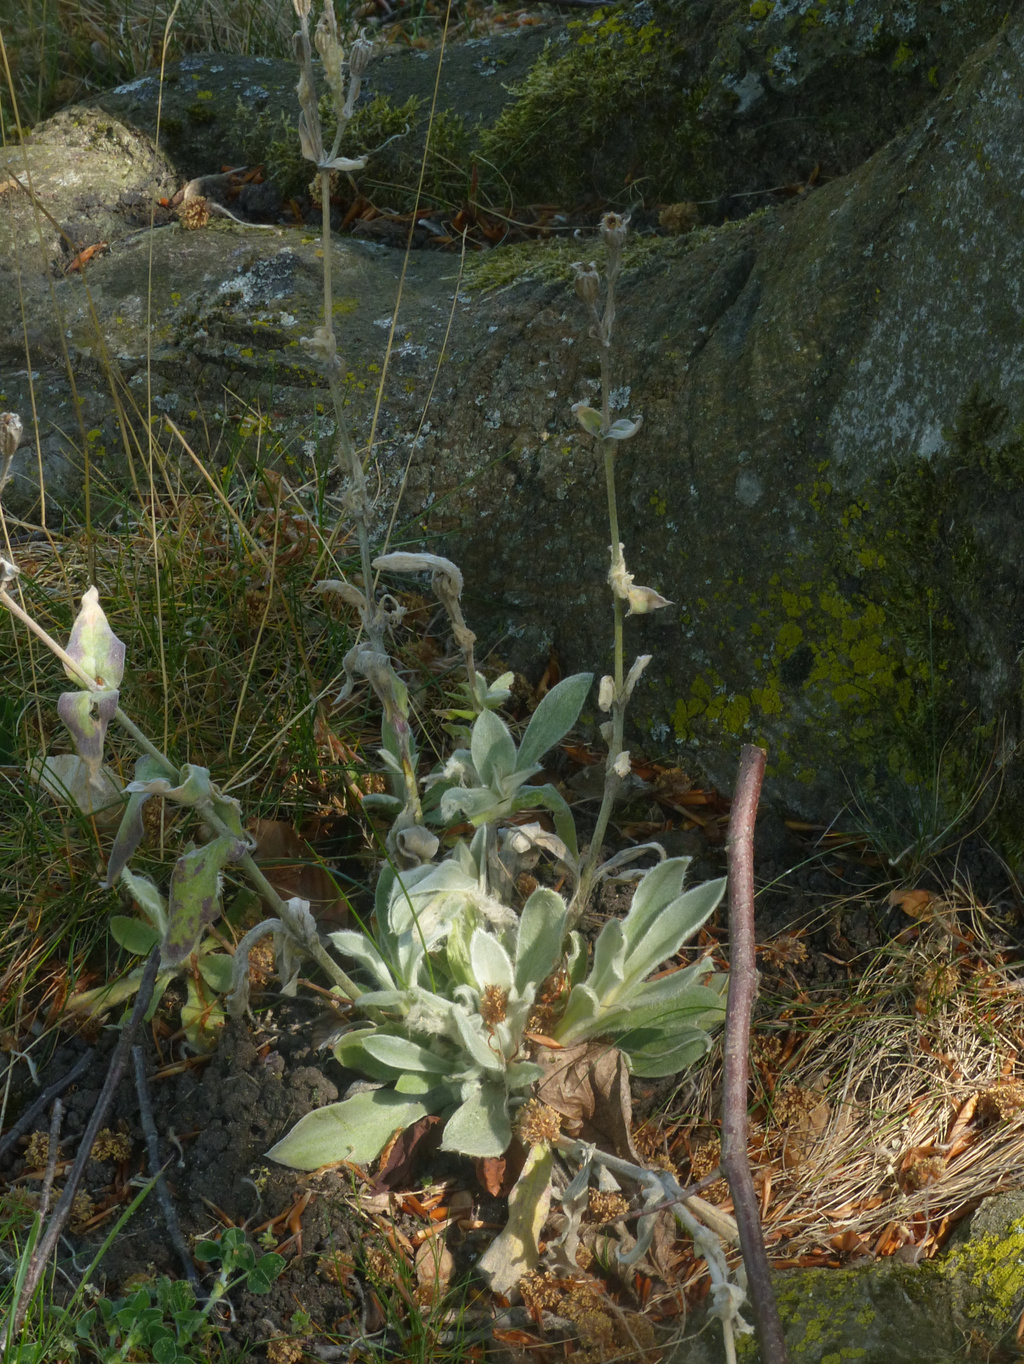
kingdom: Plantae
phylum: Tracheophyta
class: Magnoliopsida
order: Caryophyllales
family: Caryophyllaceae
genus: Silene
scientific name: Silene coronaria
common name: Rose campion
